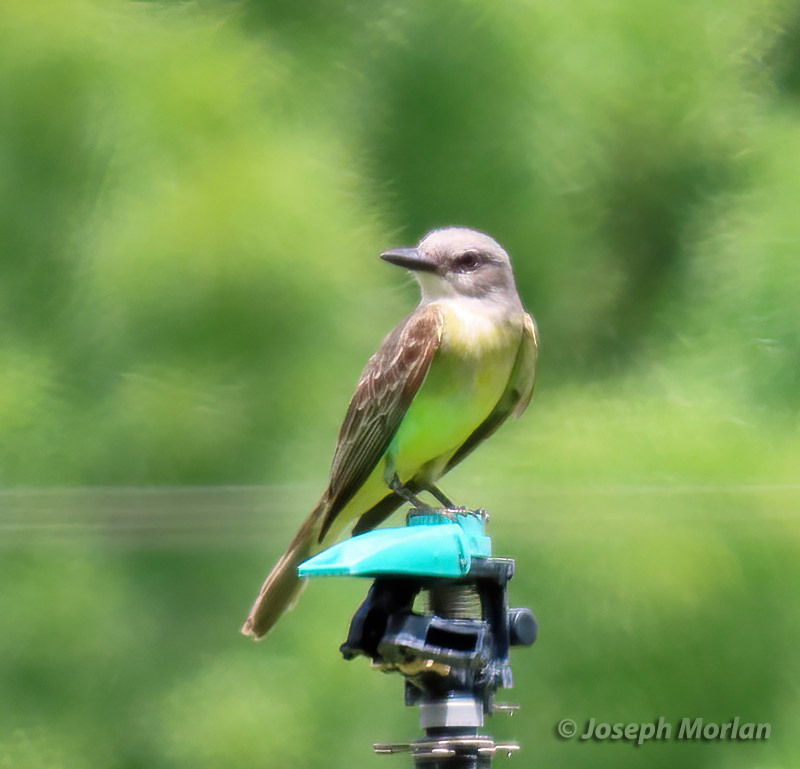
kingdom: Animalia
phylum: Chordata
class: Aves
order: Passeriformes
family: Tyrannidae
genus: Tyrannus
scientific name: Tyrannus melancholicus
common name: Tropical kingbird
